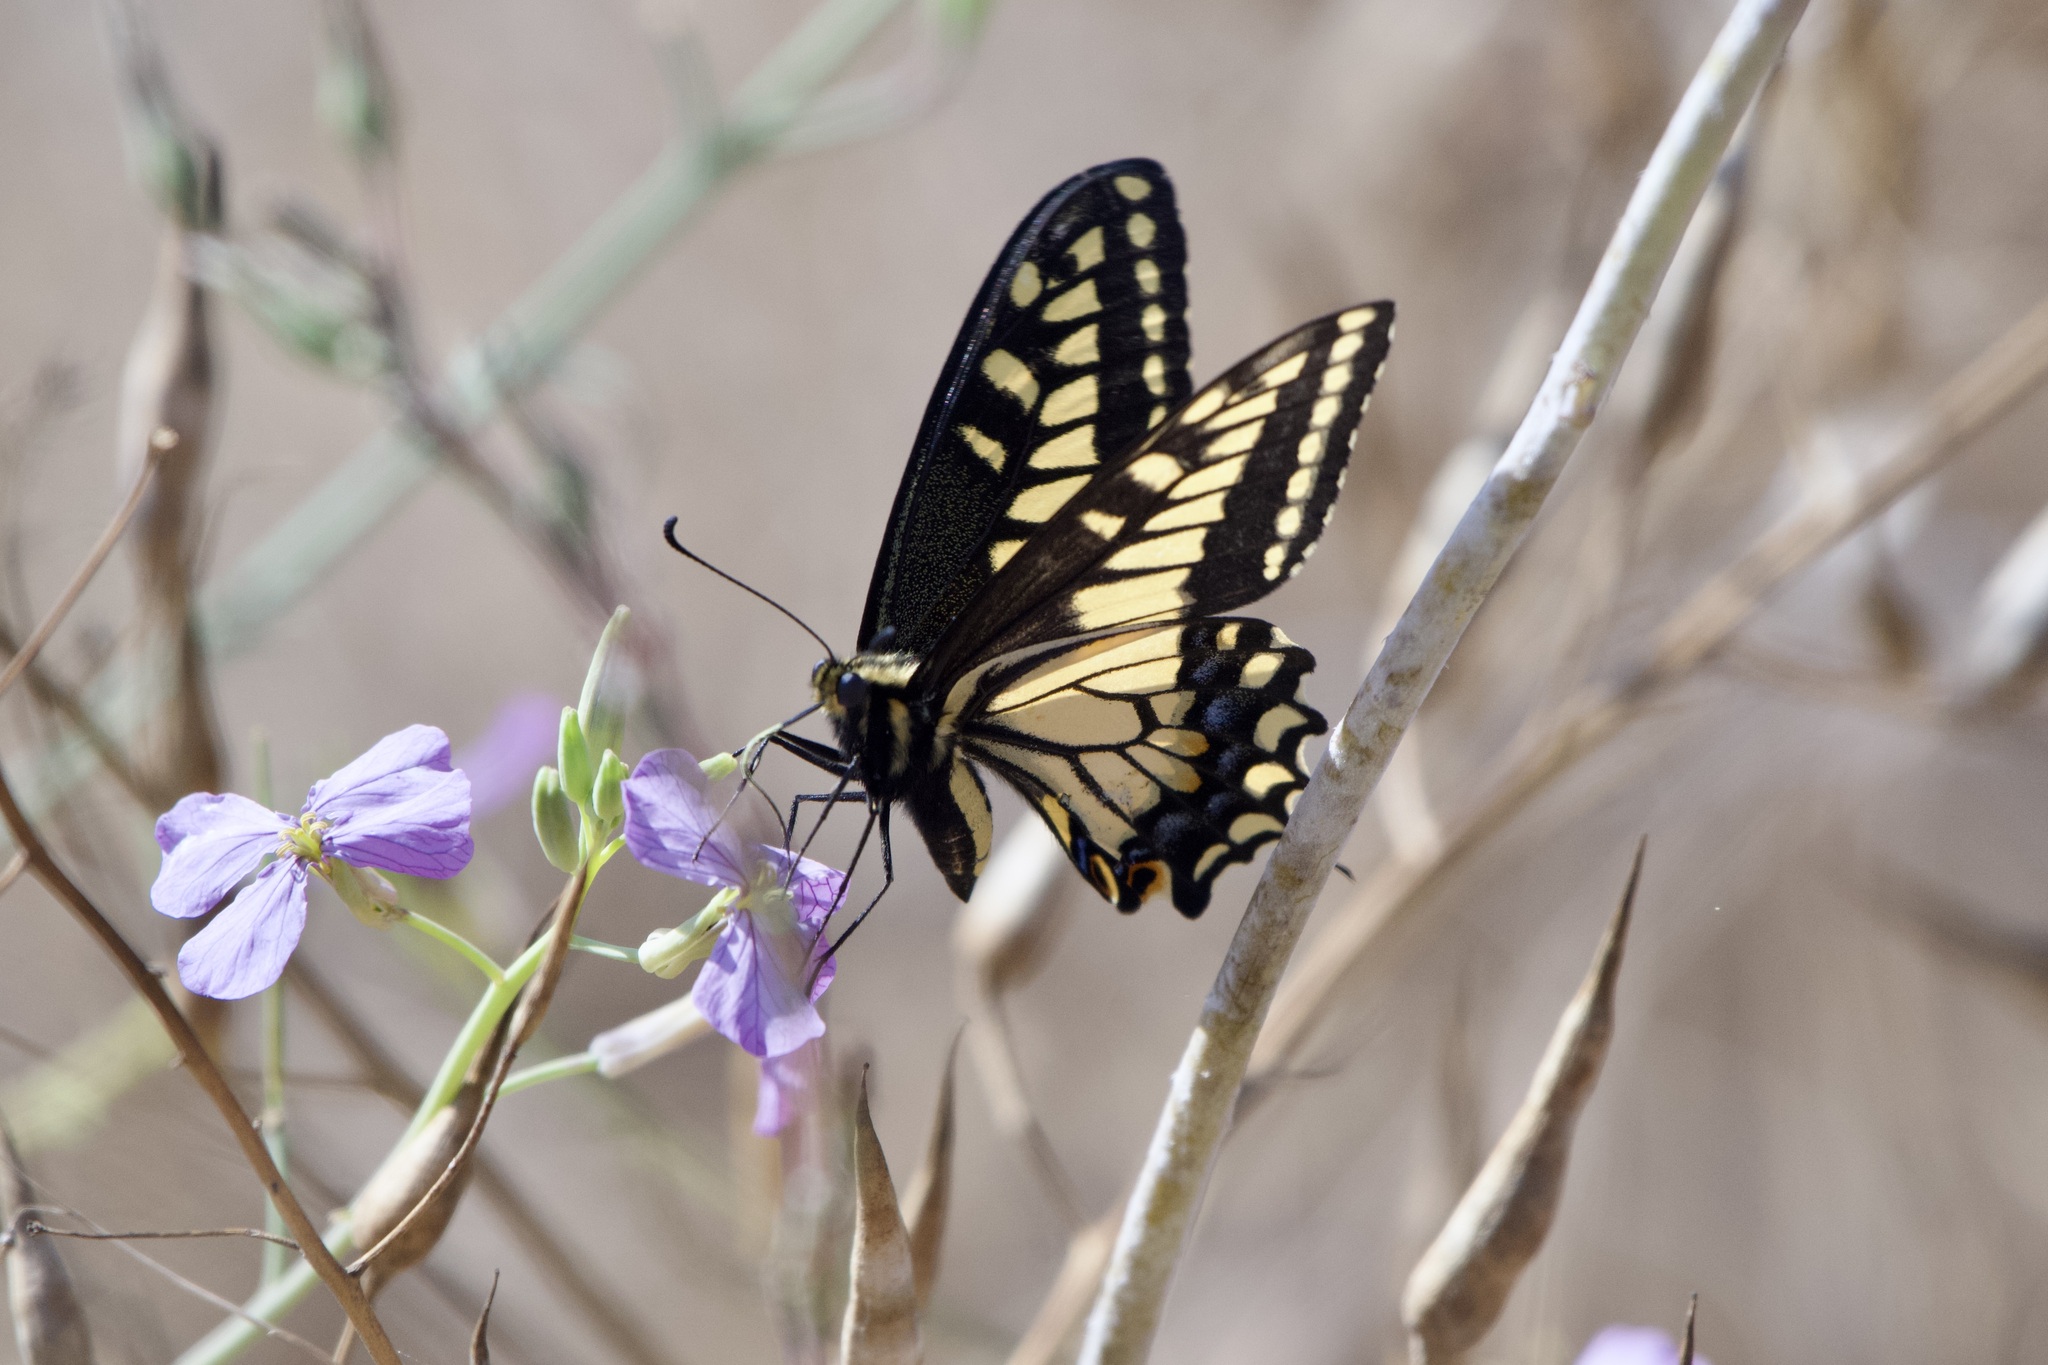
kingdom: Animalia
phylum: Arthropoda
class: Insecta
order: Lepidoptera
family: Papilionidae
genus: Papilio
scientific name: Papilio zelicaon
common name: Anise swallowtail
